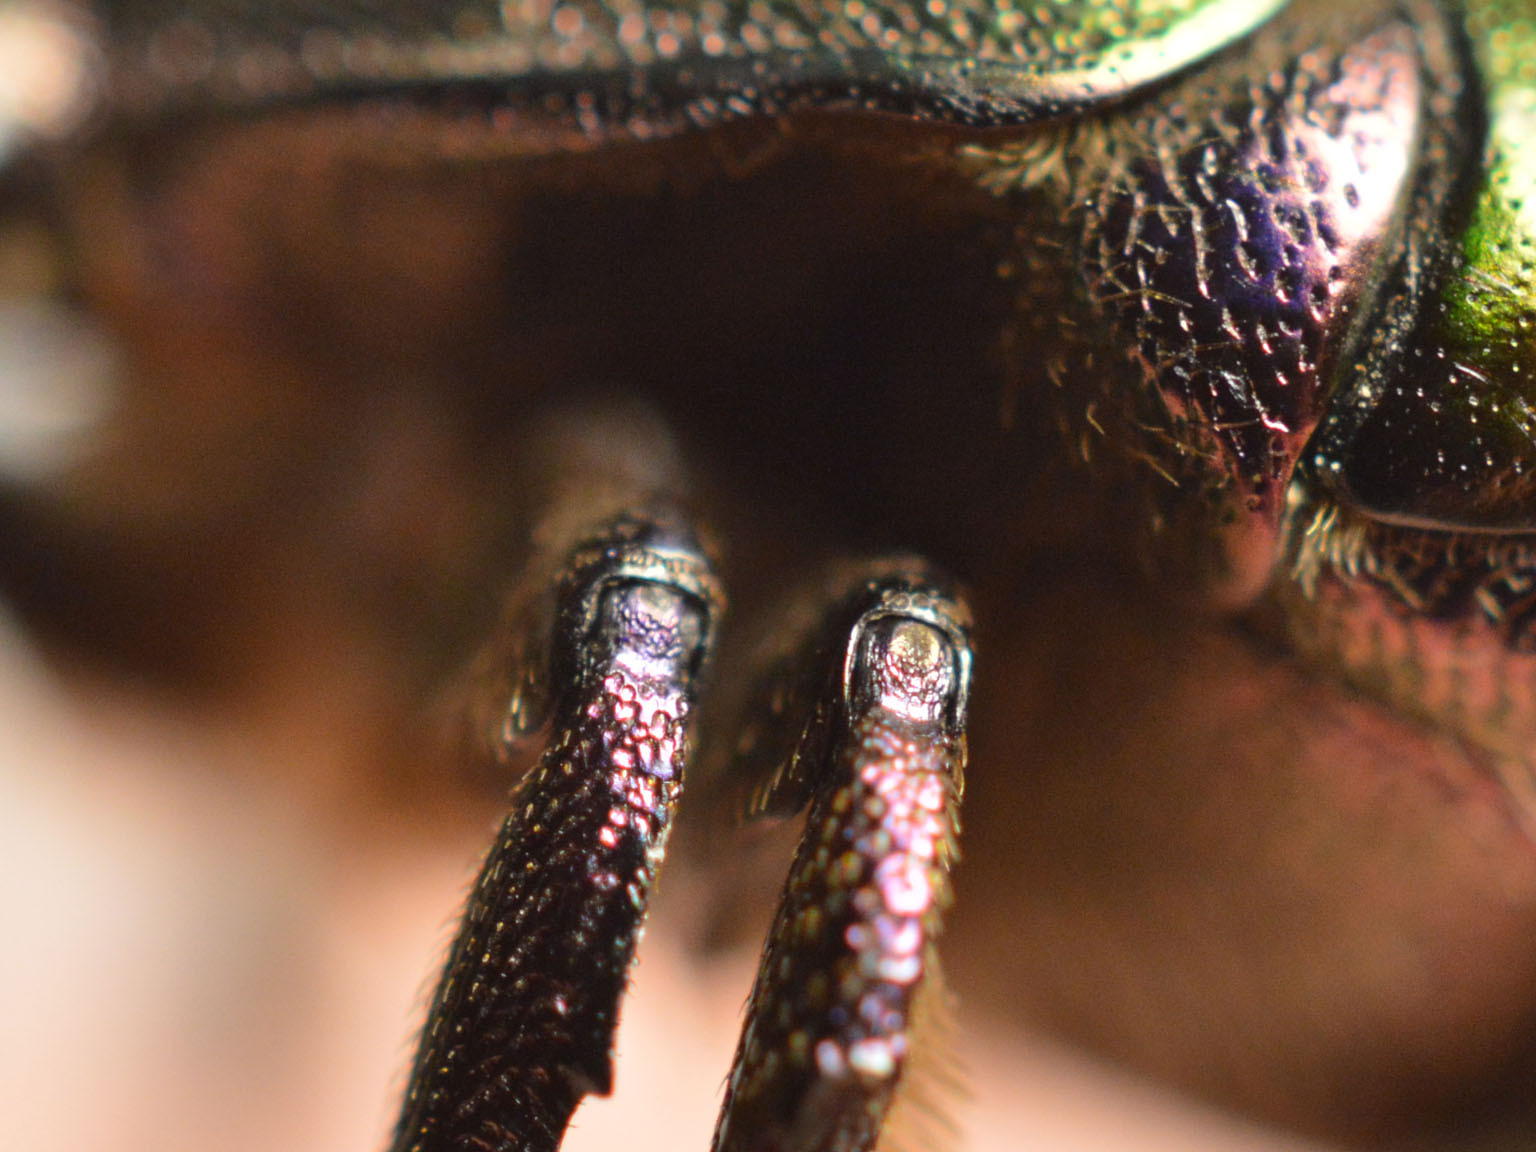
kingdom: Animalia
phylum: Arthropoda
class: Insecta
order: Coleoptera
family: Scarabaeidae
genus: Protaetia
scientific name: Protaetia cuprea
